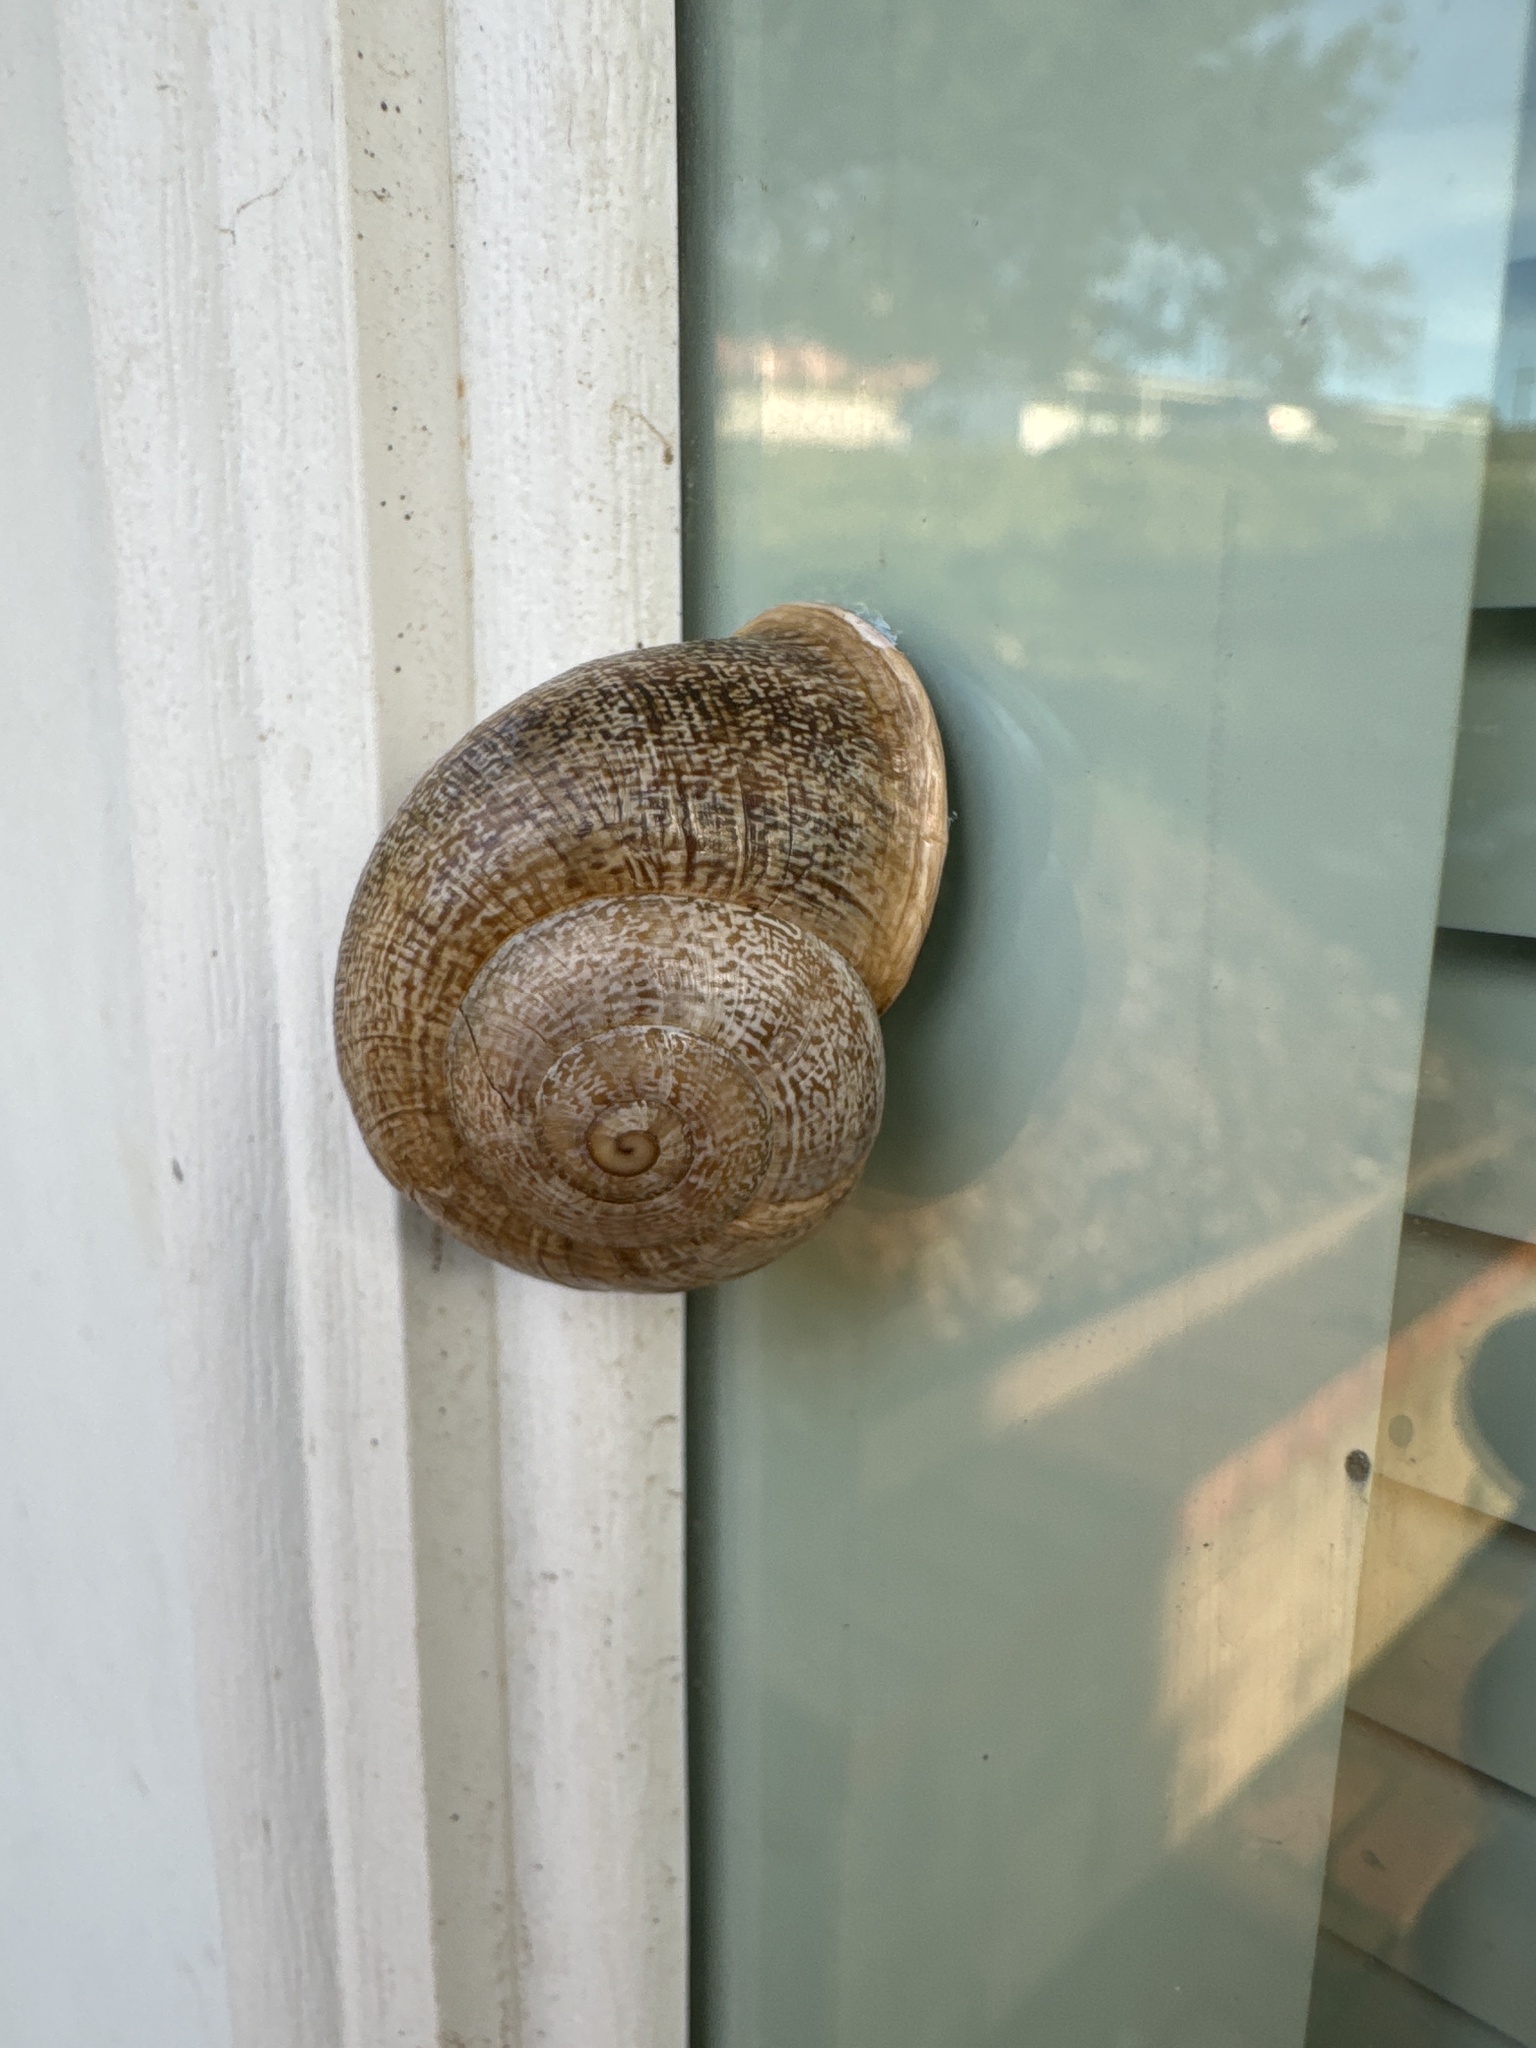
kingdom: Animalia
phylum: Mollusca
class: Gastropoda
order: Stylommatophora
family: Helicidae
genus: Otala
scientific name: Otala lactea
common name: Milk snail
